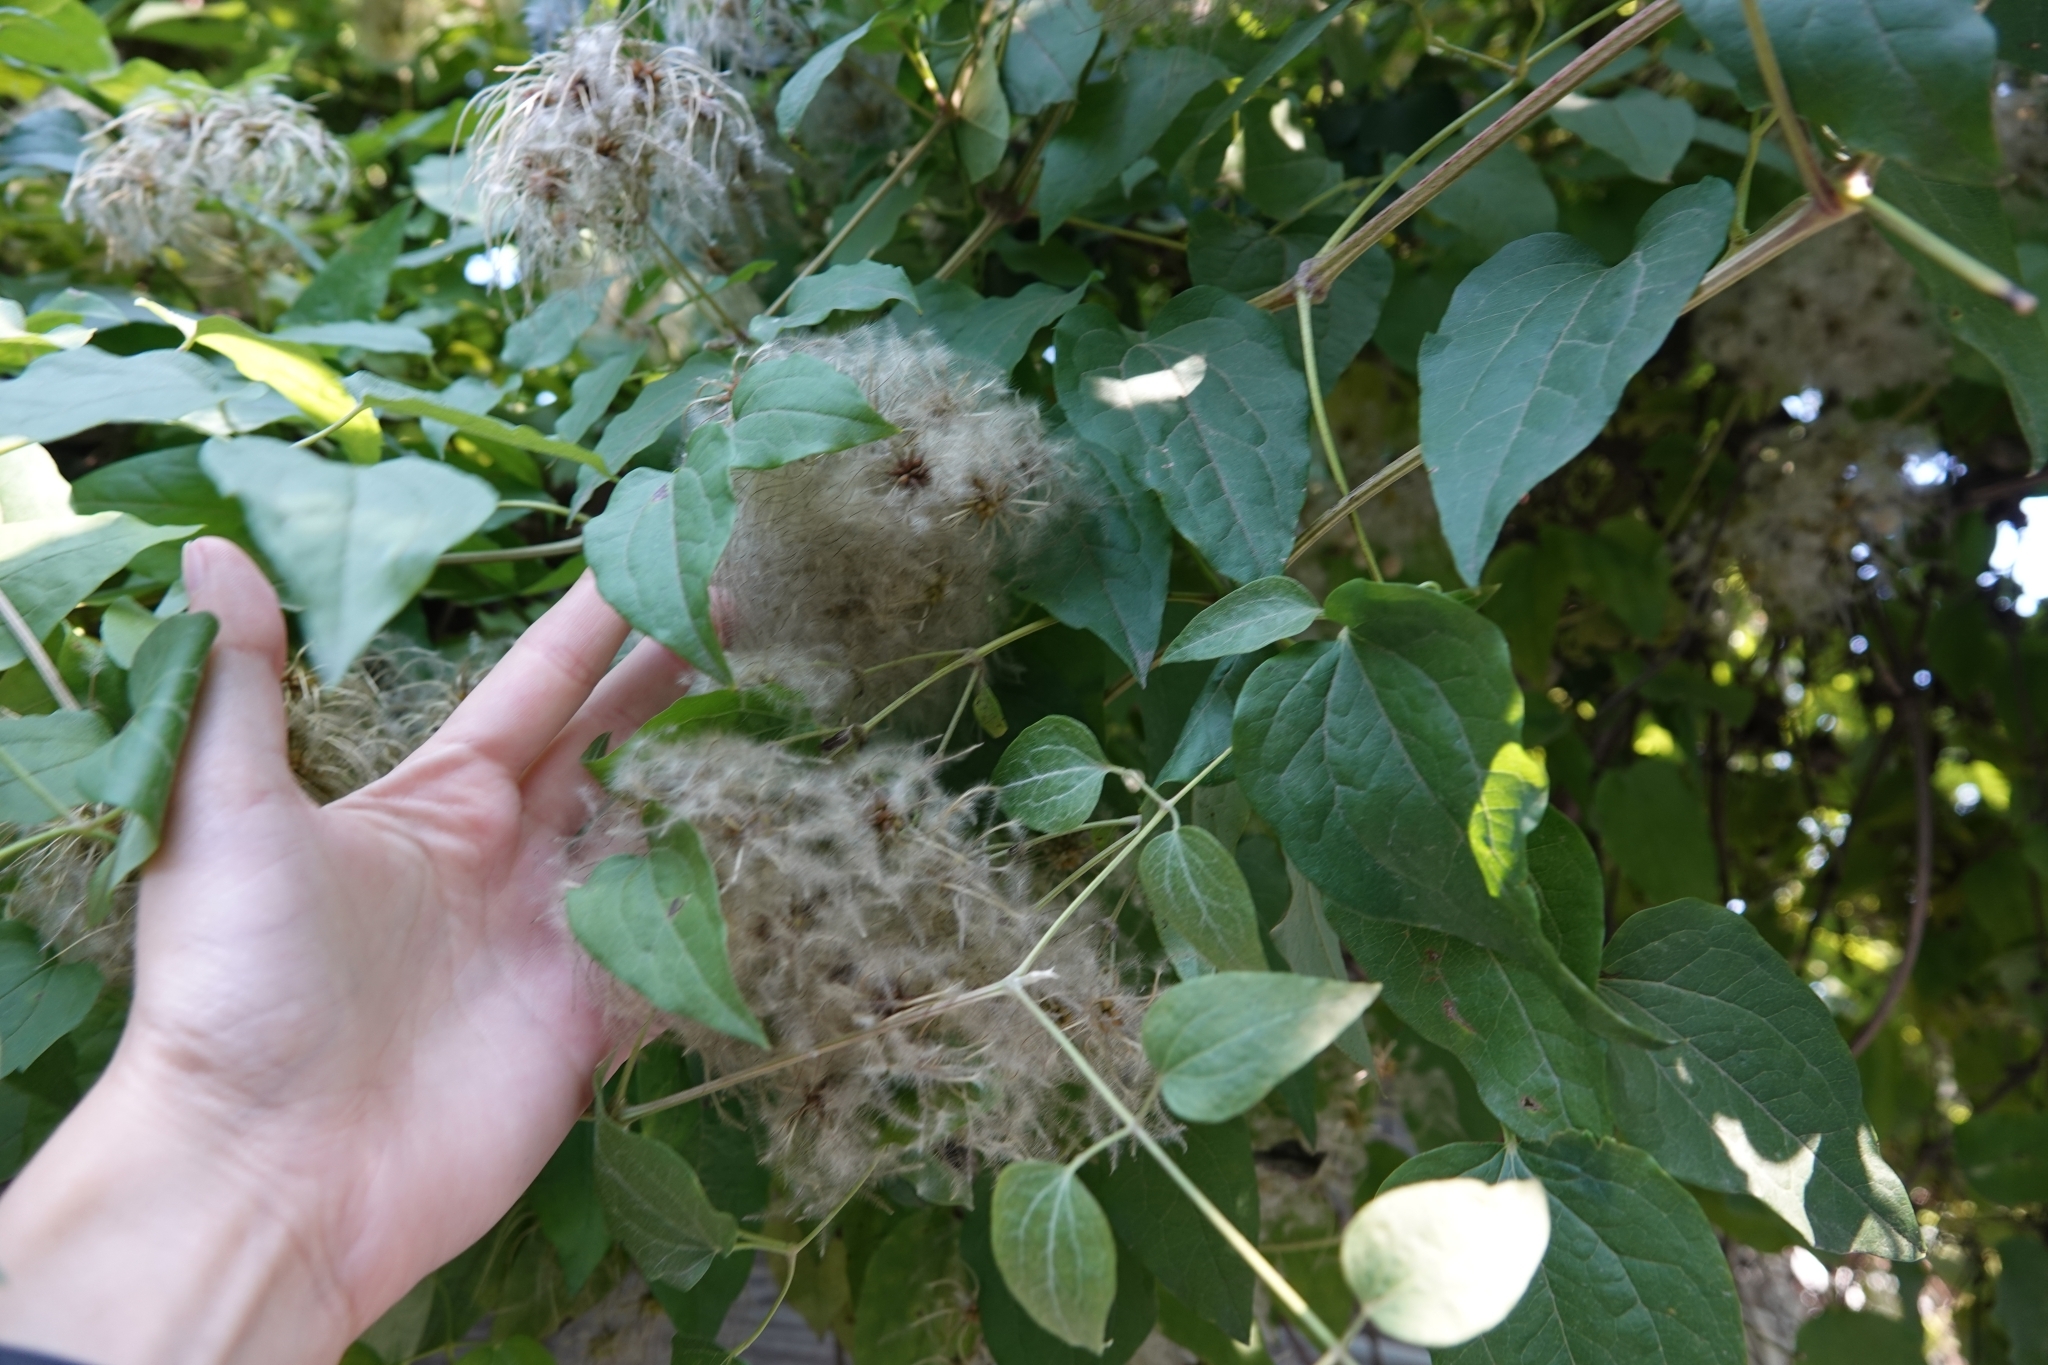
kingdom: Plantae
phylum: Tracheophyta
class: Magnoliopsida
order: Ranunculales
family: Ranunculaceae
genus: Clematis
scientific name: Clematis vitalba
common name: Evergreen clematis
